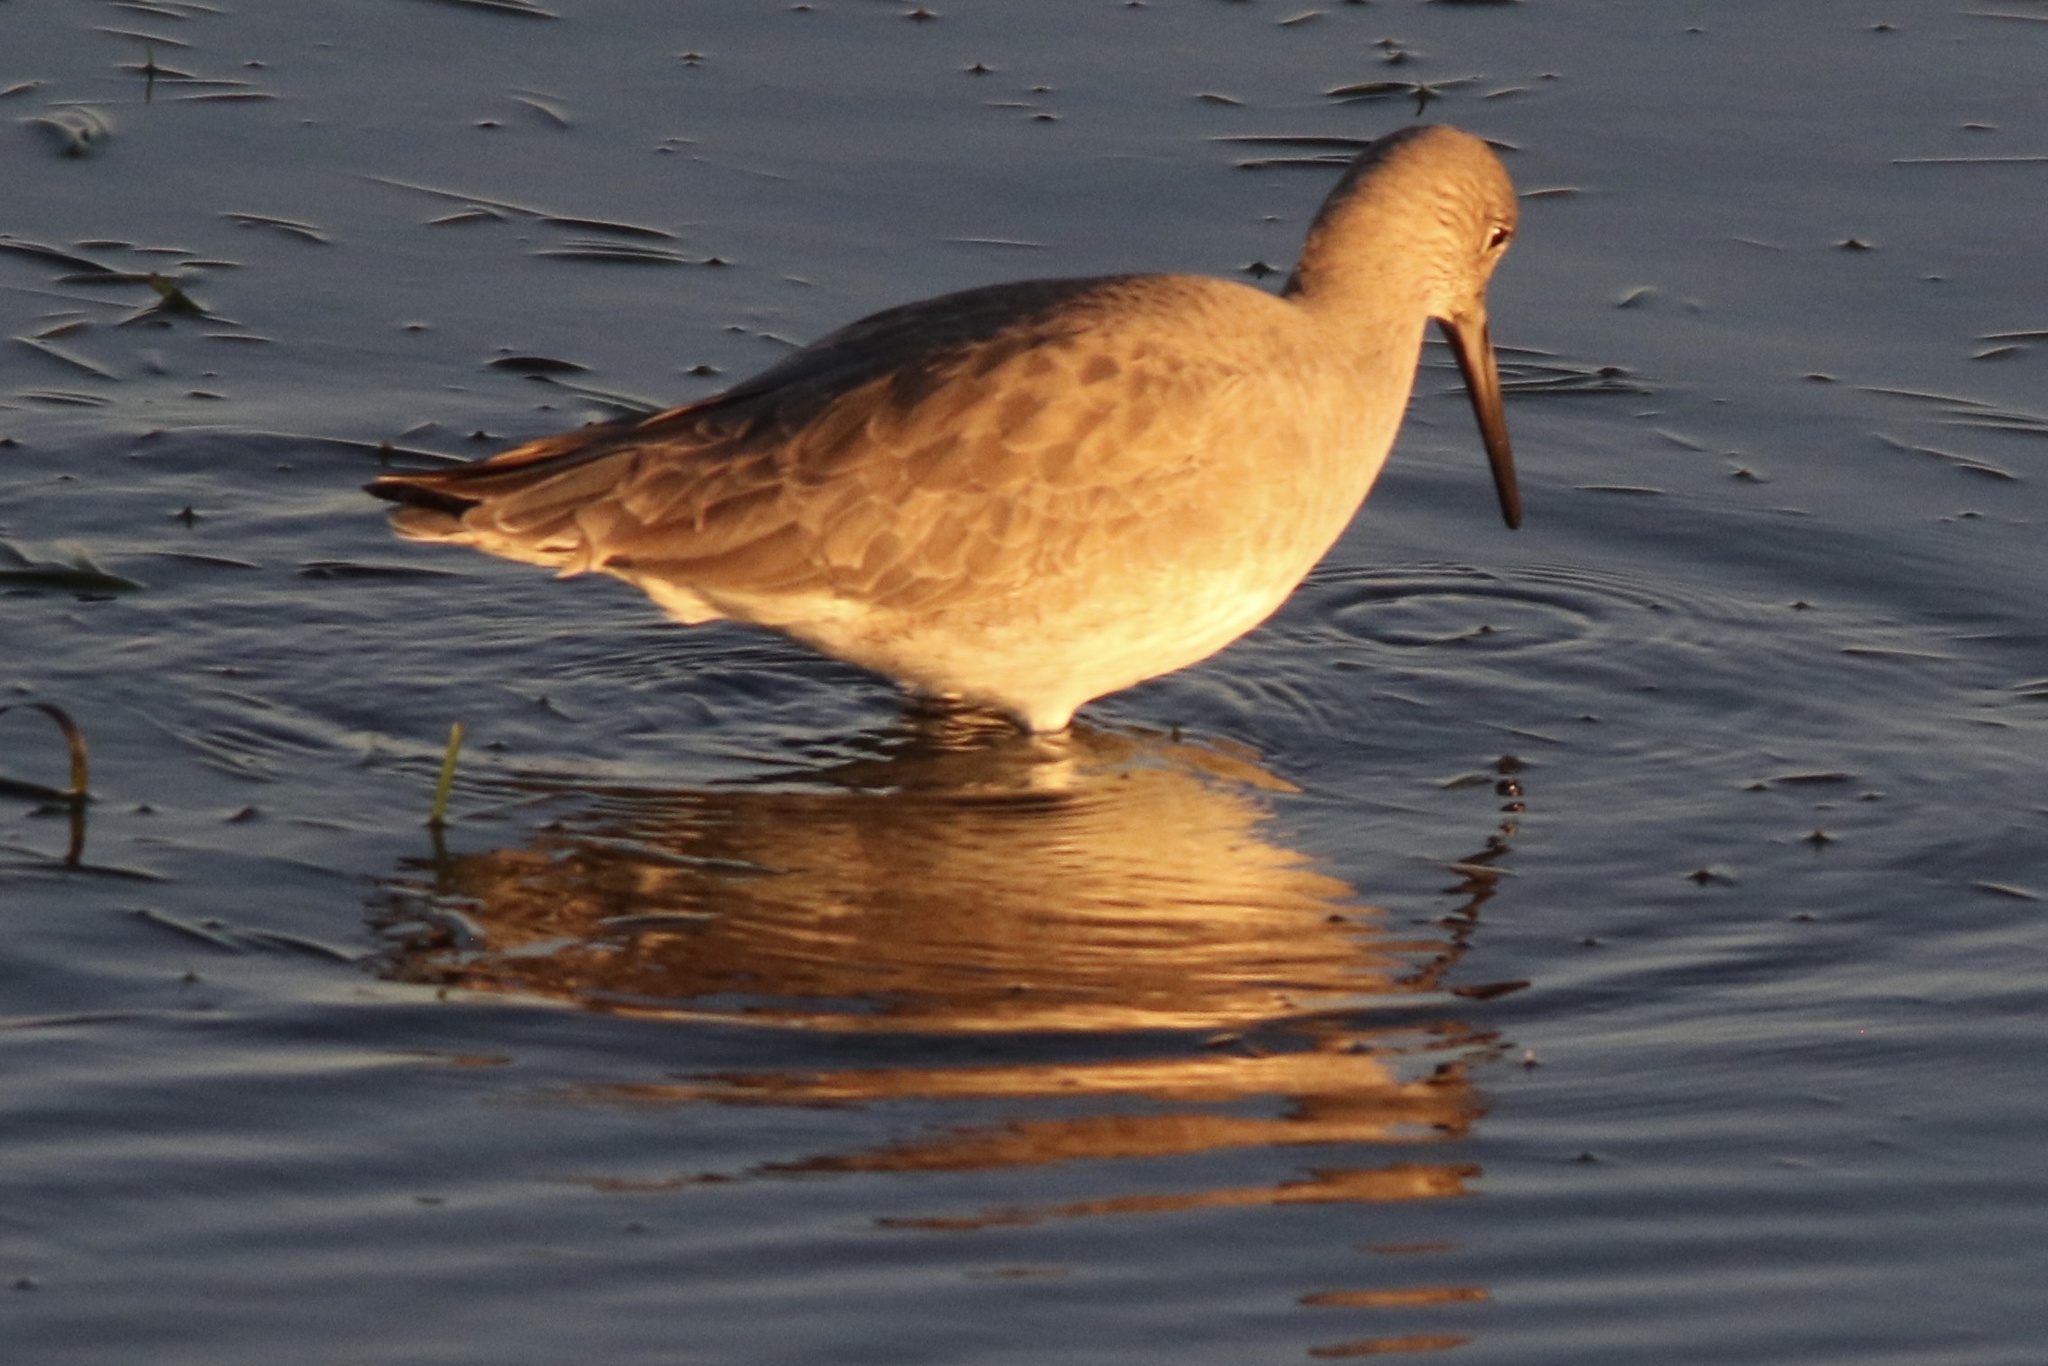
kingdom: Animalia
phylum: Chordata
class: Aves
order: Charadriiformes
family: Scolopacidae
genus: Tringa
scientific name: Tringa semipalmata
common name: Willet
